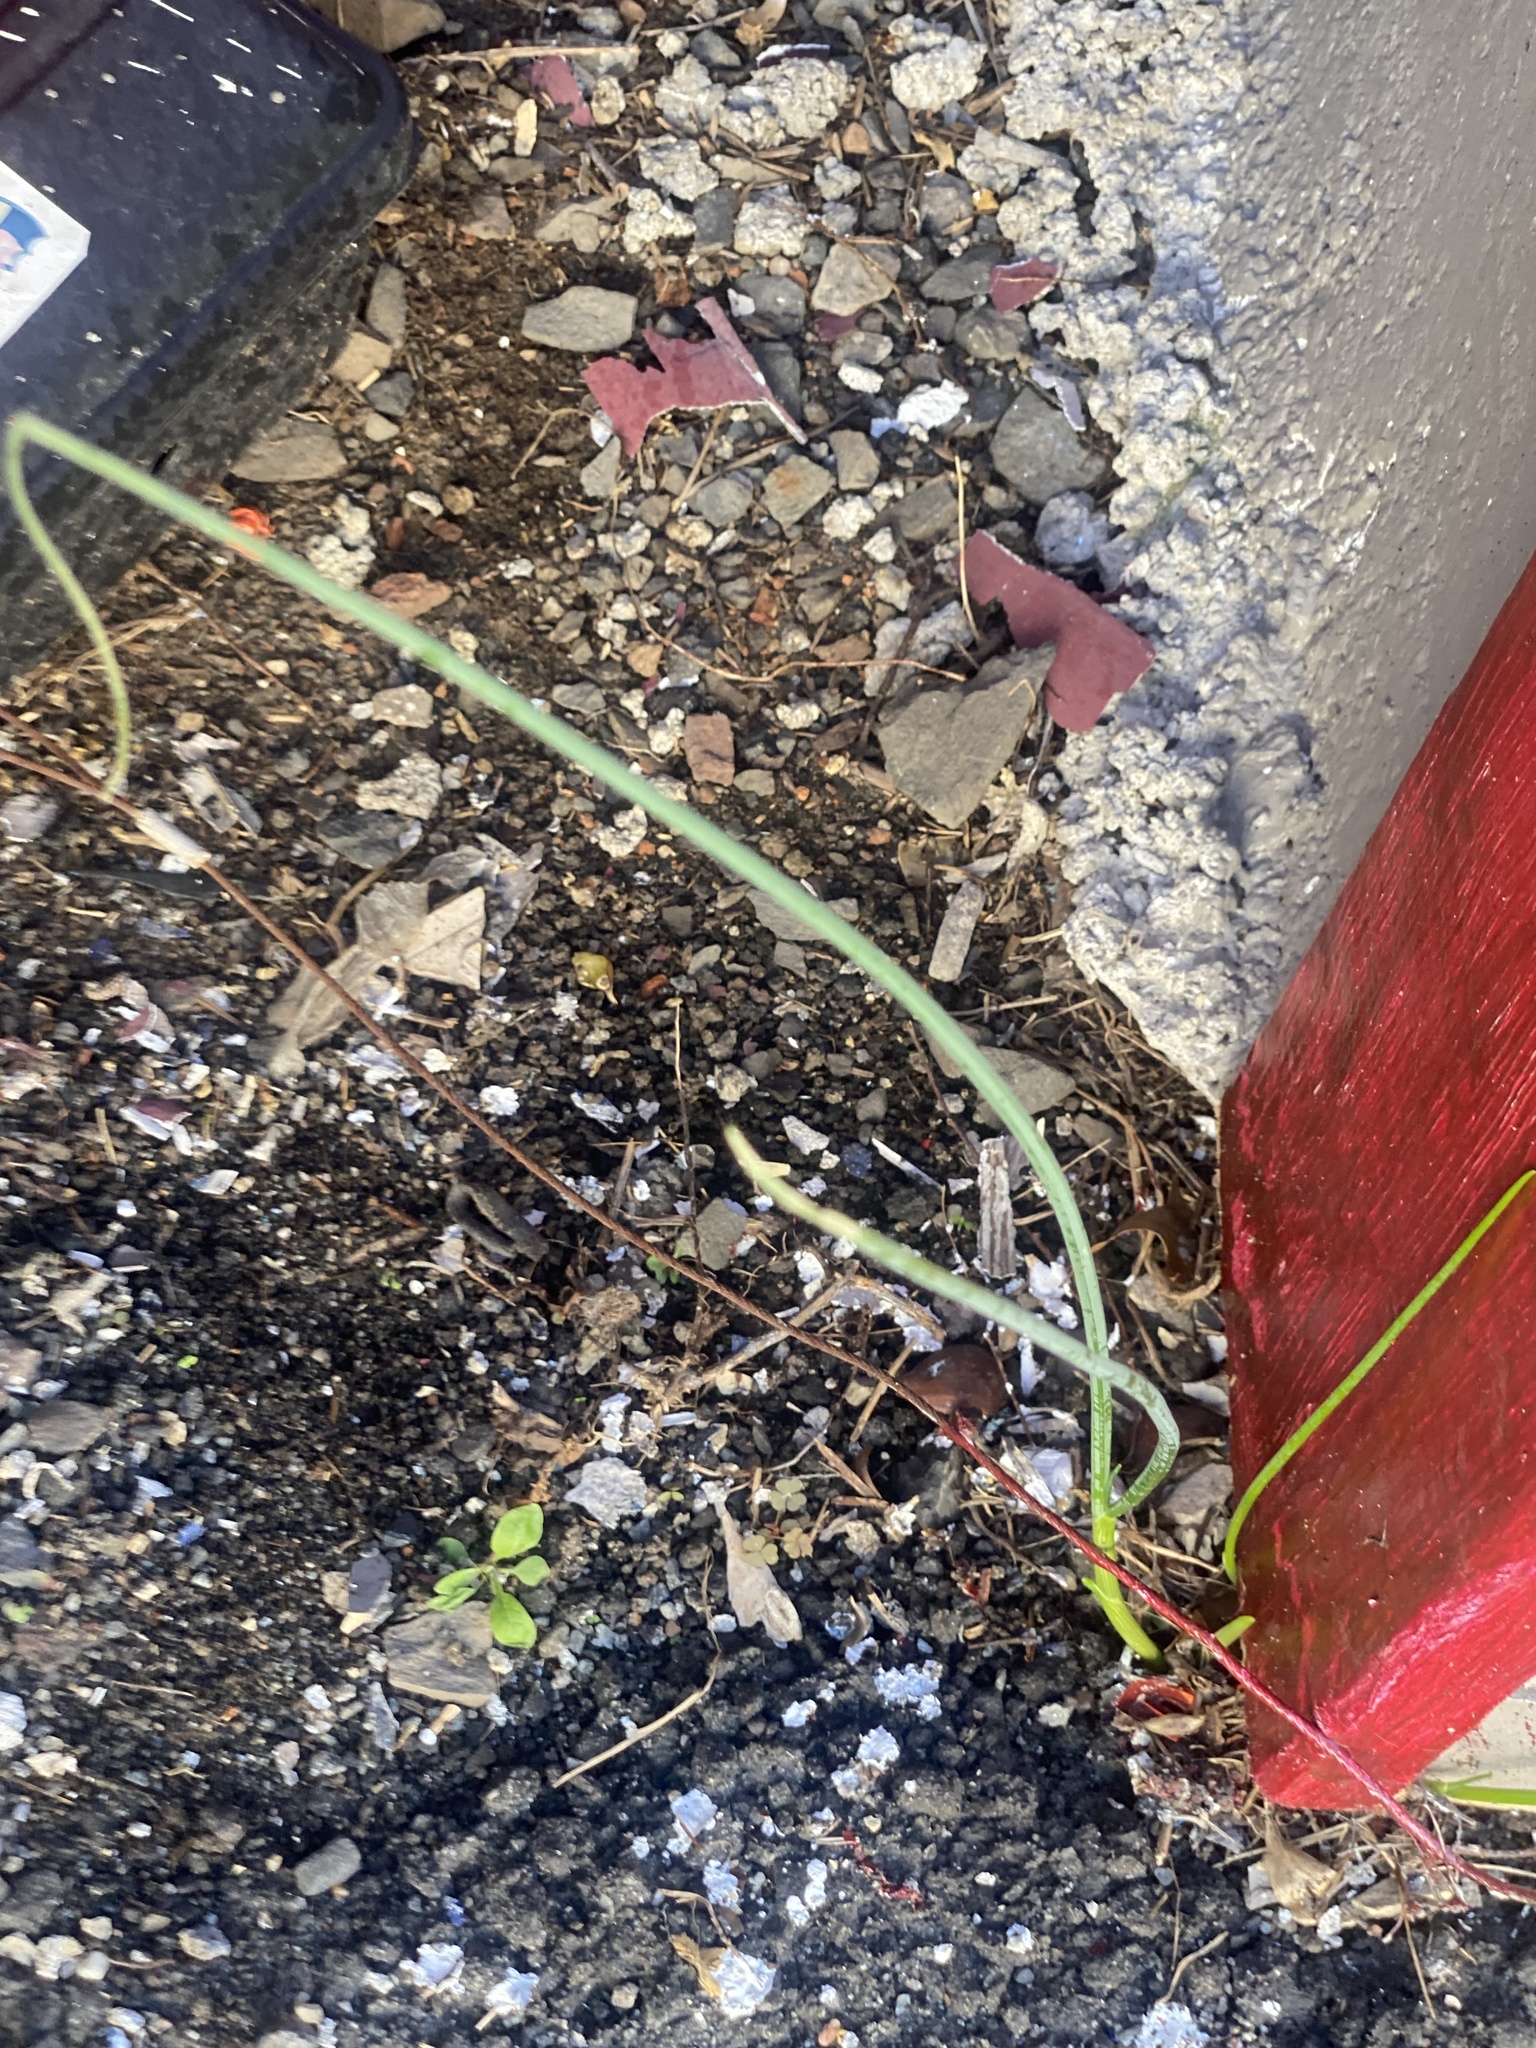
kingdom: Plantae
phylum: Tracheophyta
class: Liliopsida
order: Asparagales
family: Amaryllidaceae
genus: Allium
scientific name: Allium vineale
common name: Crow garlic
